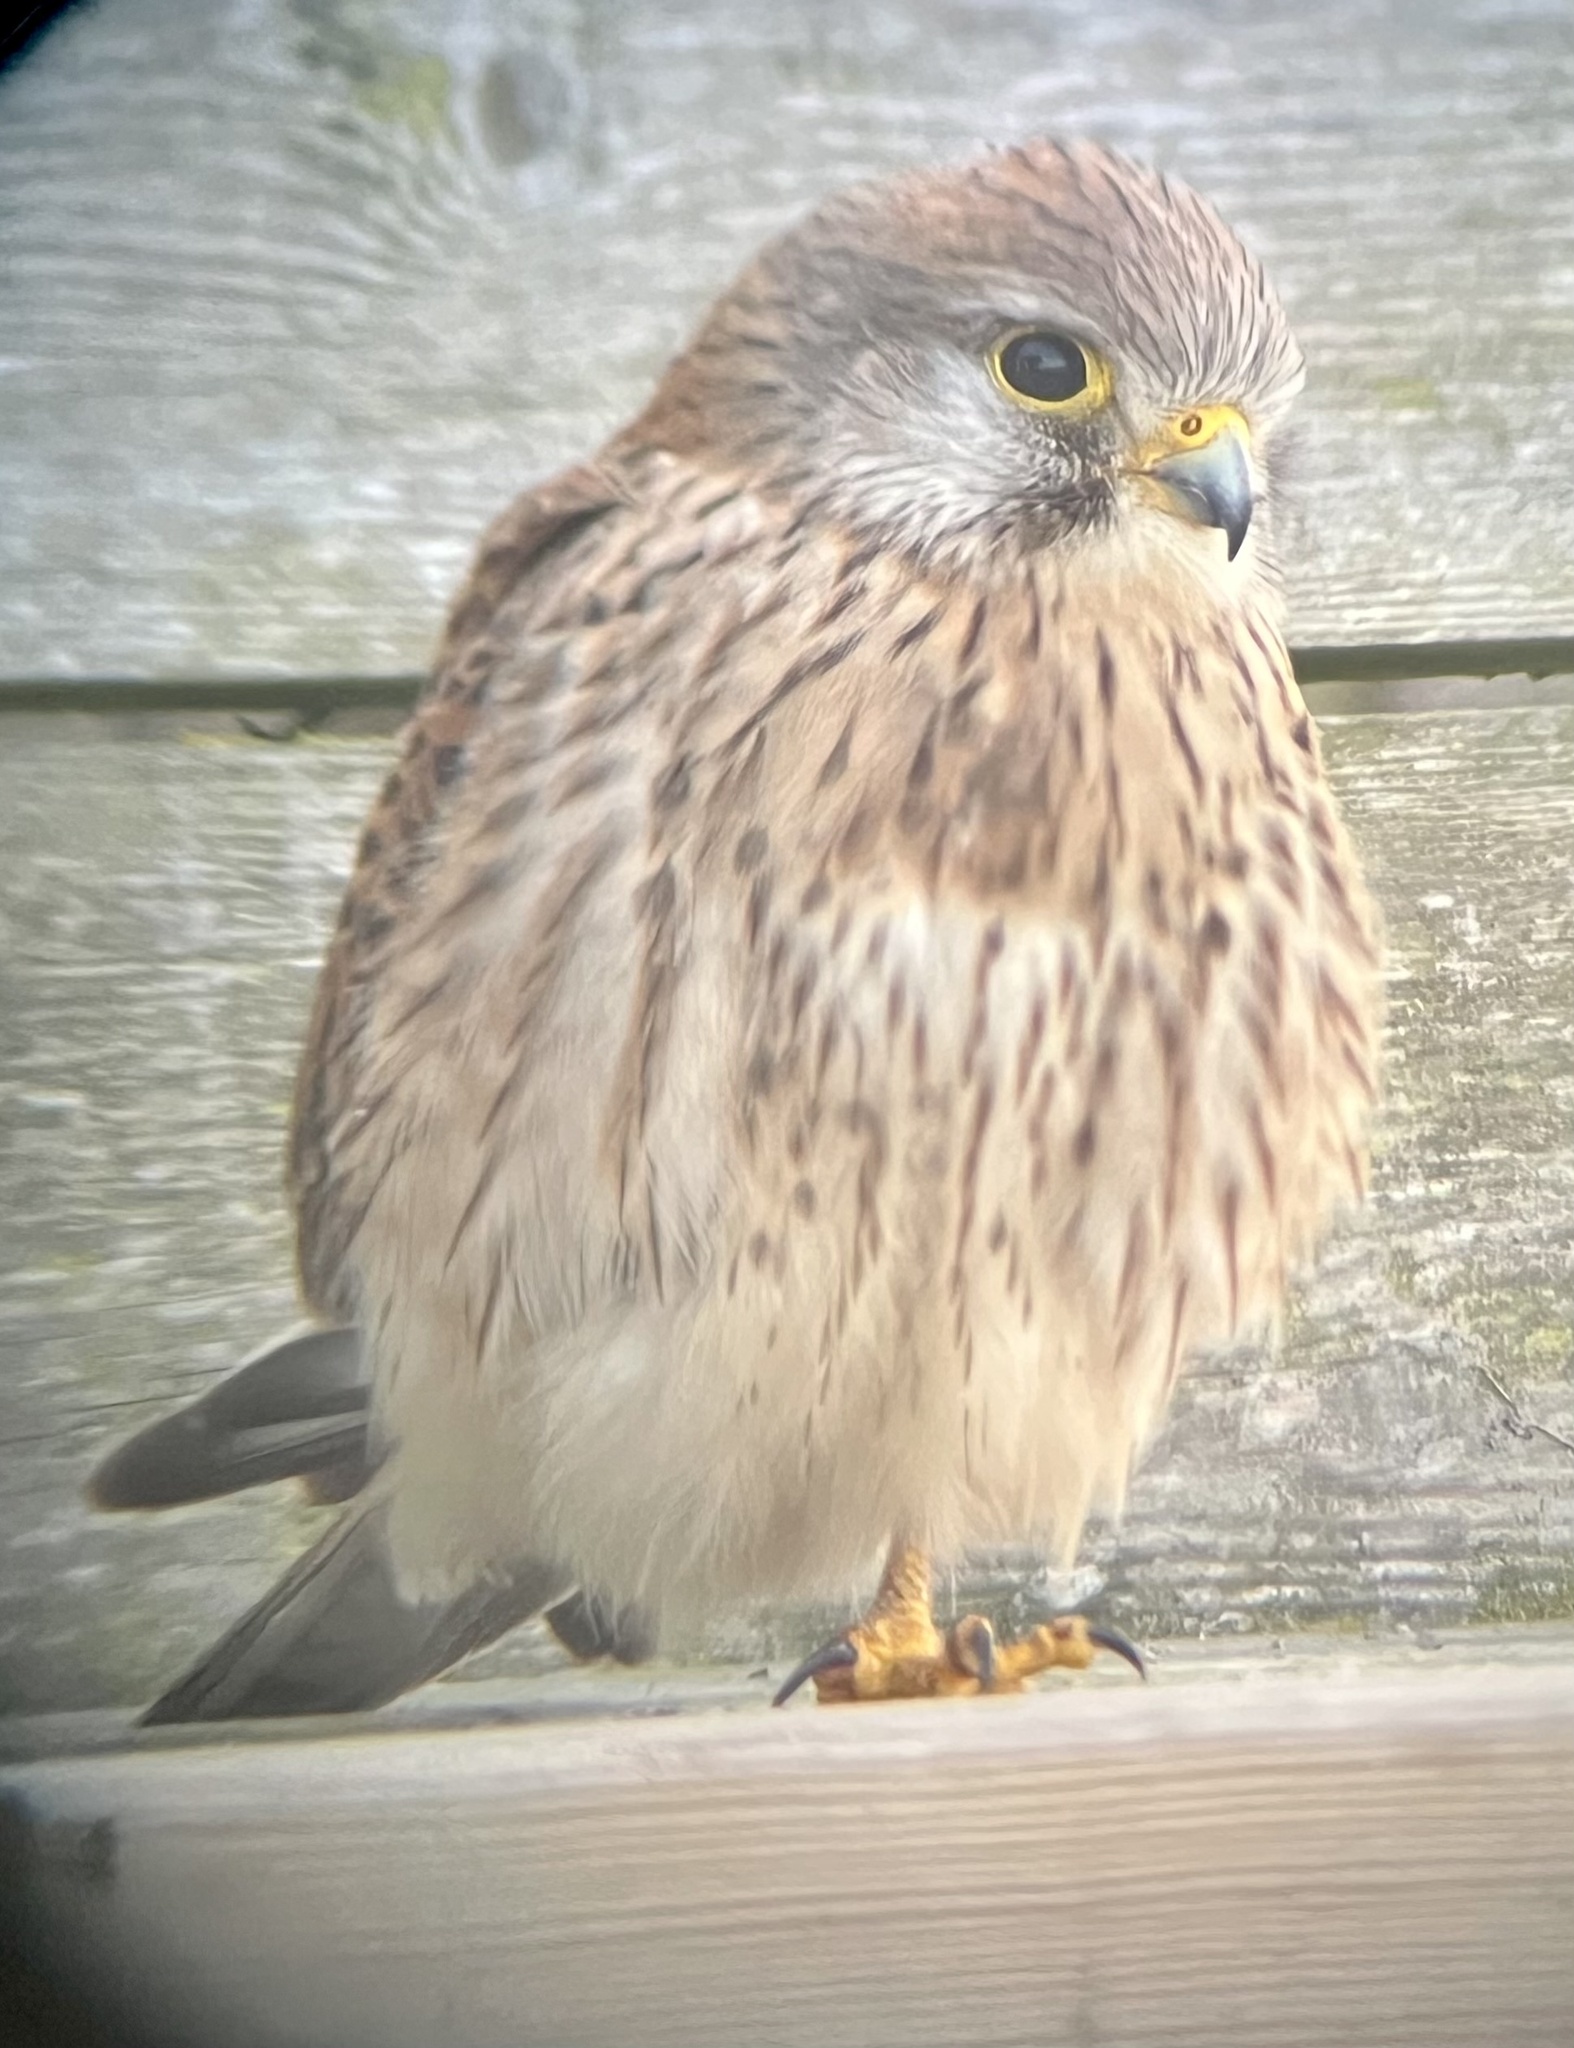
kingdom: Animalia
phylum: Chordata
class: Aves
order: Falconiformes
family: Falconidae
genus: Falco
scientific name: Falco tinnunculus
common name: Common kestrel
